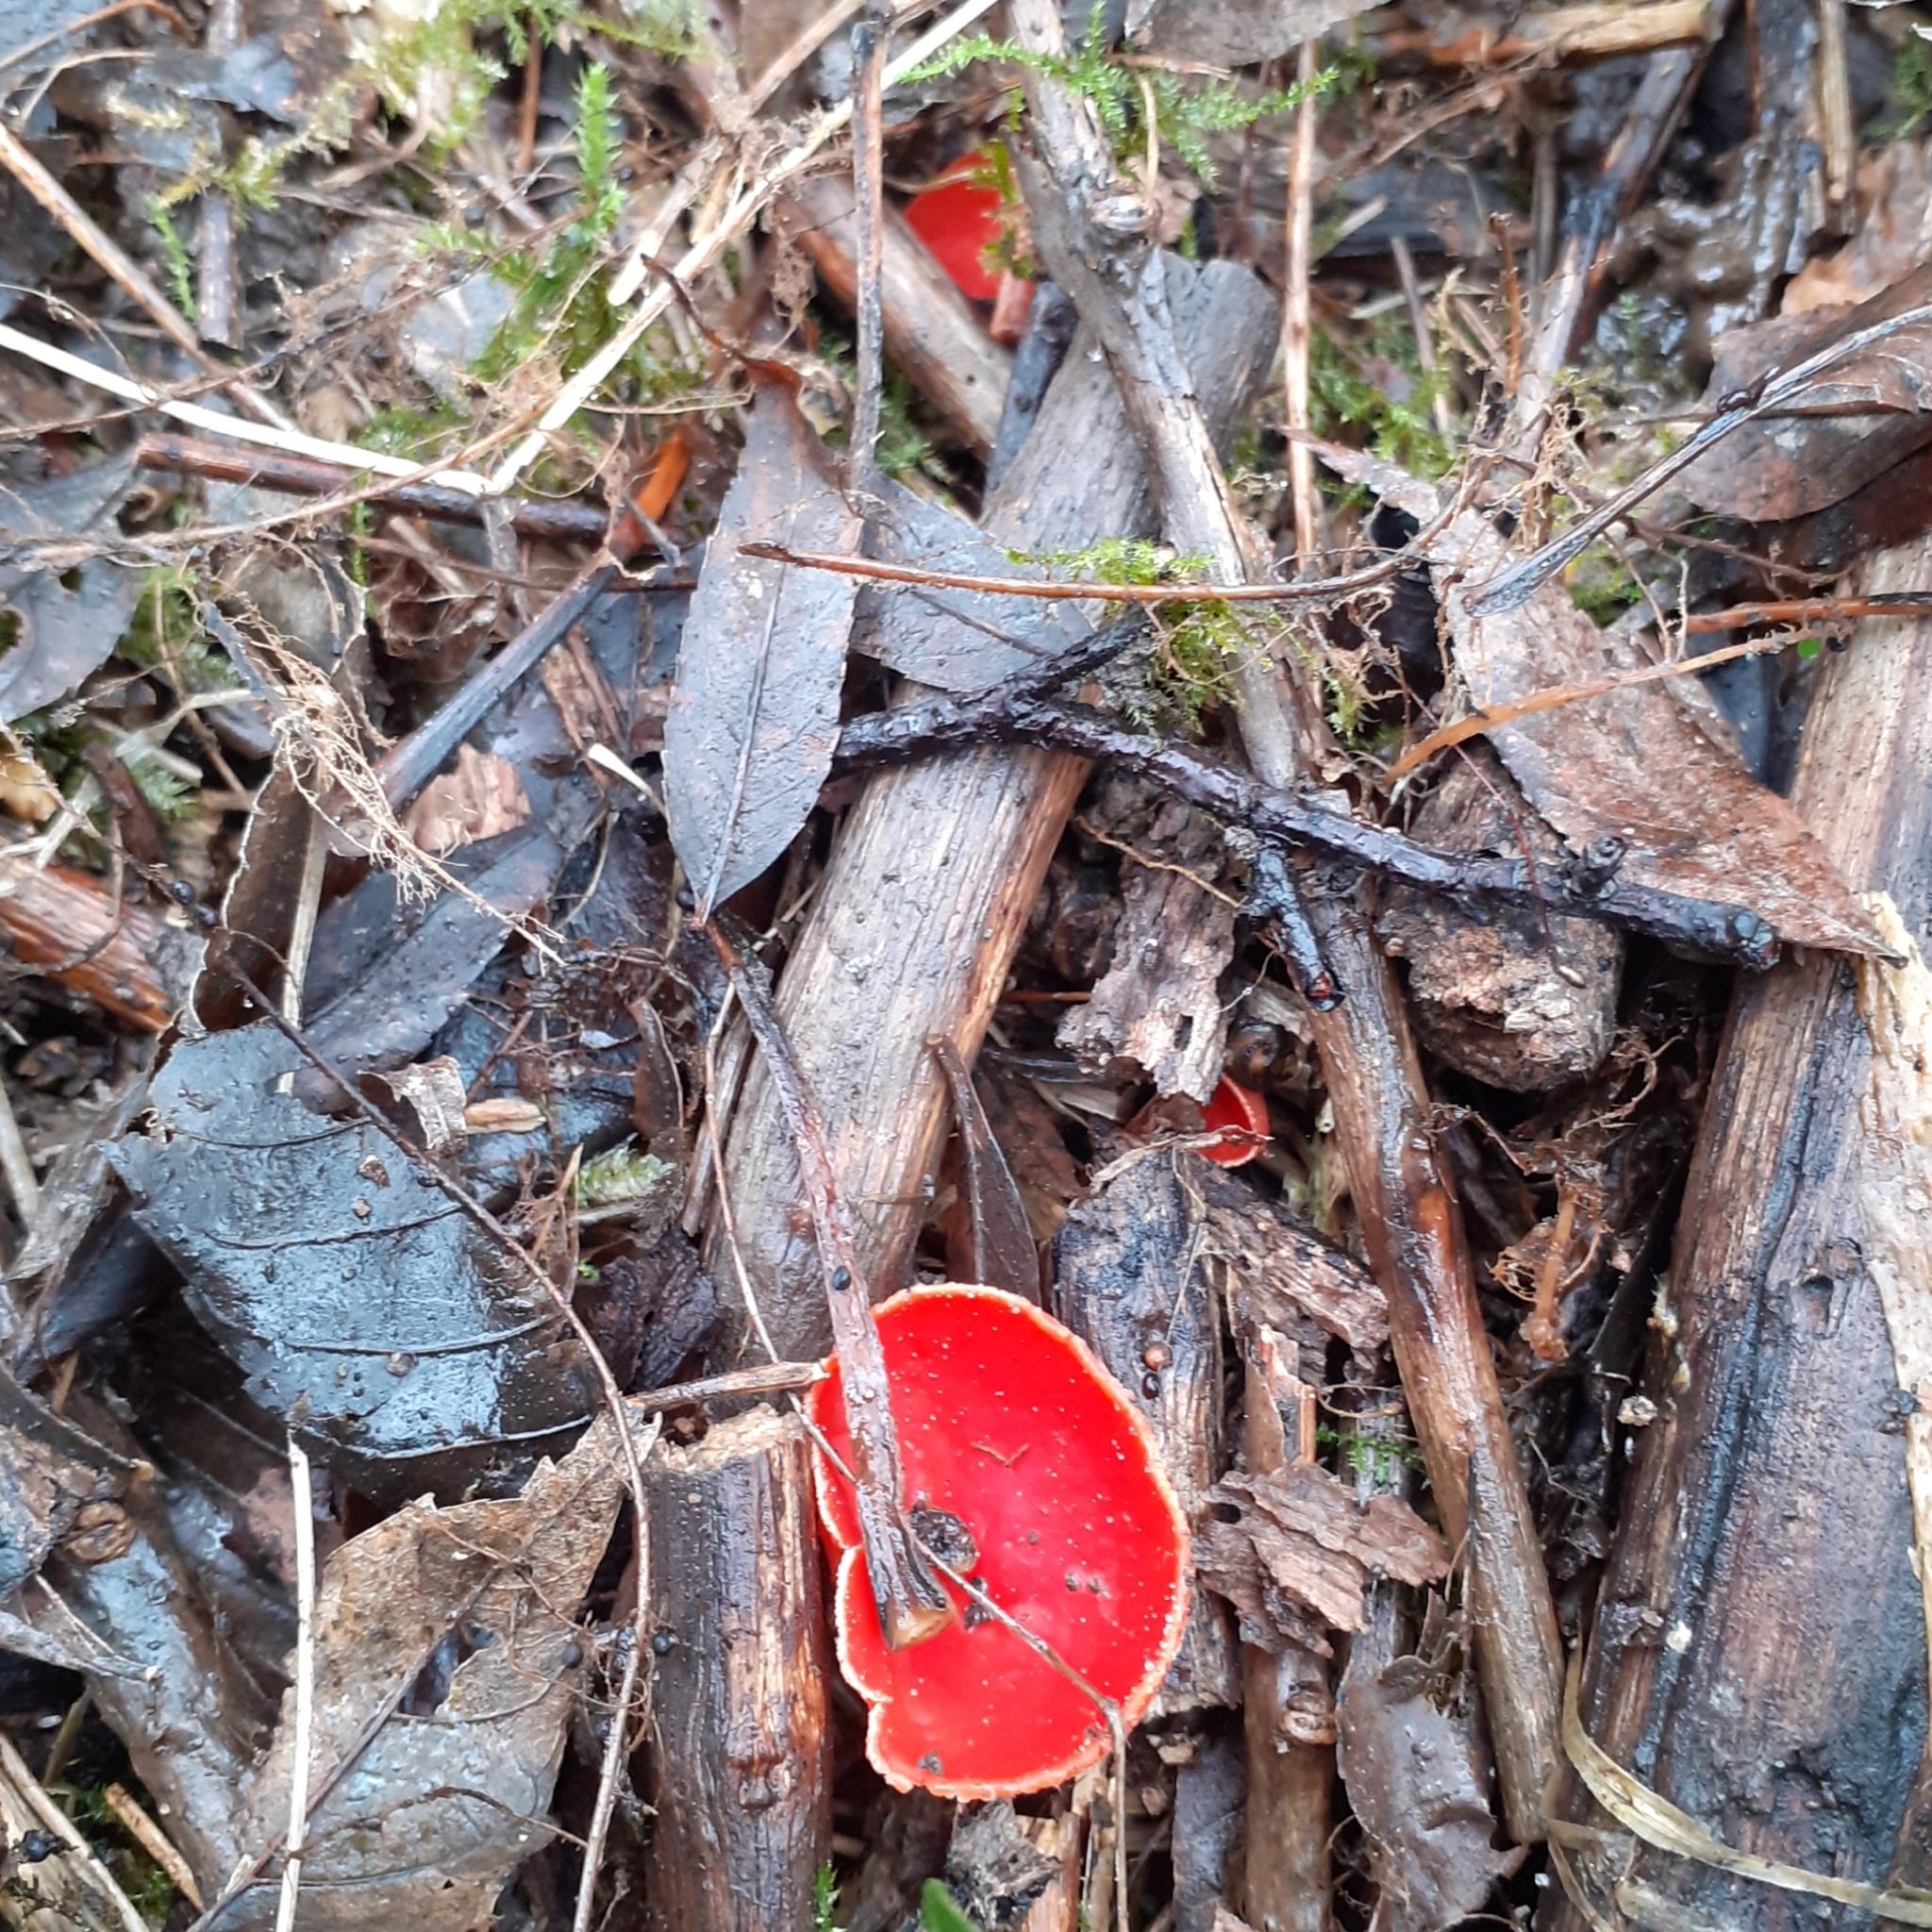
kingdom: Fungi
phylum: Ascomycota
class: Pezizomycetes
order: Pezizales
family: Sarcoscyphaceae
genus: Sarcoscypha
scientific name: Sarcoscypha
